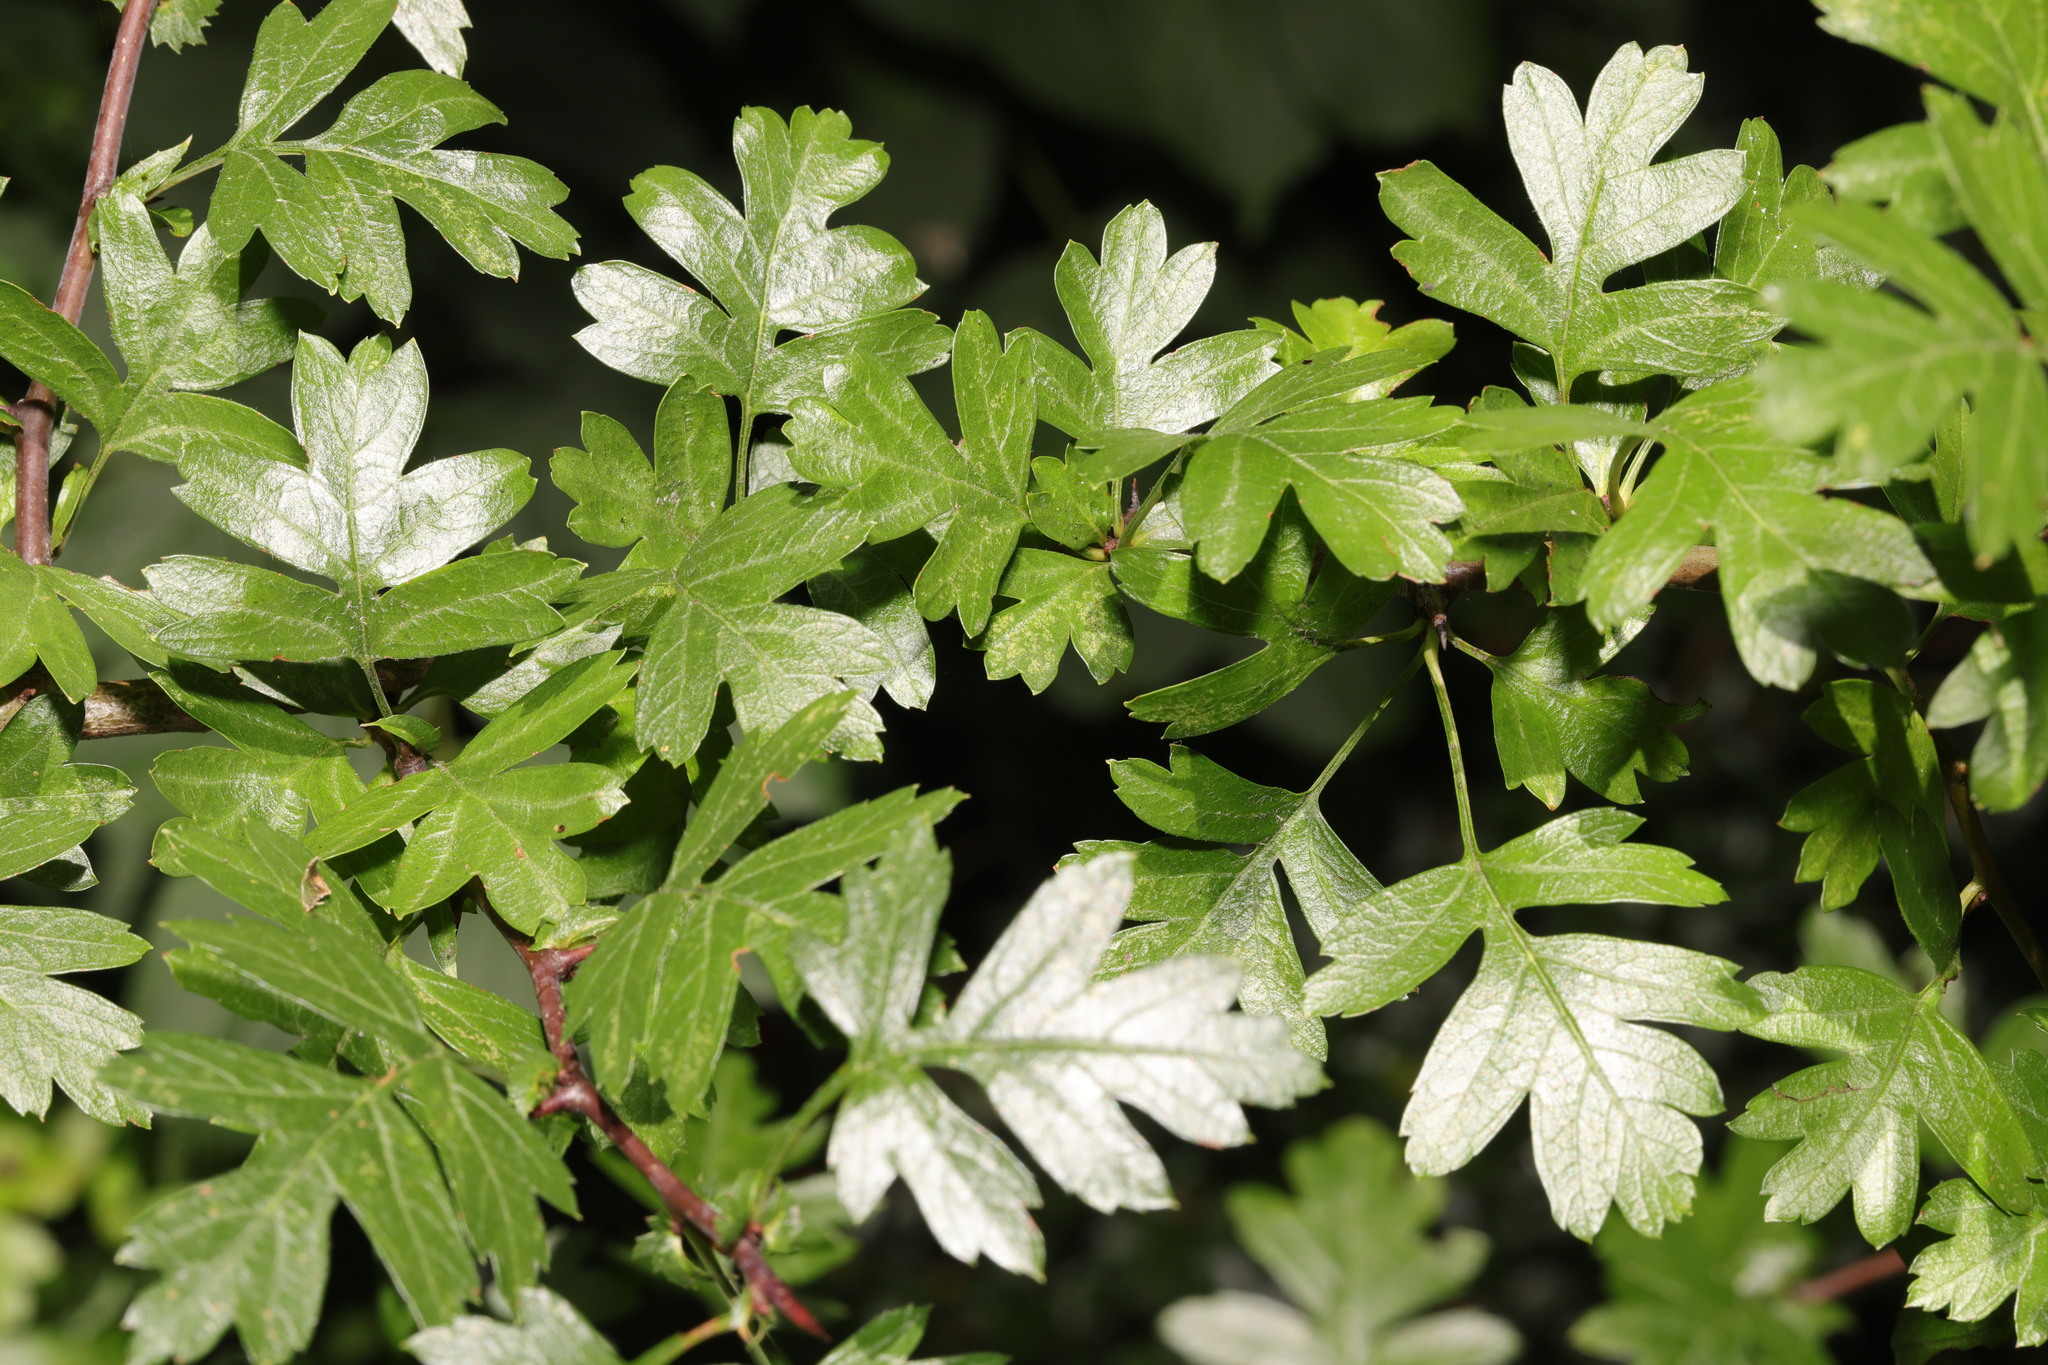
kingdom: Plantae
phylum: Tracheophyta
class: Magnoliopsida
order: Rosales
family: Rosaceae
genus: Crataegus
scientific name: Crataegus monogyna
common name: Hawthorn
